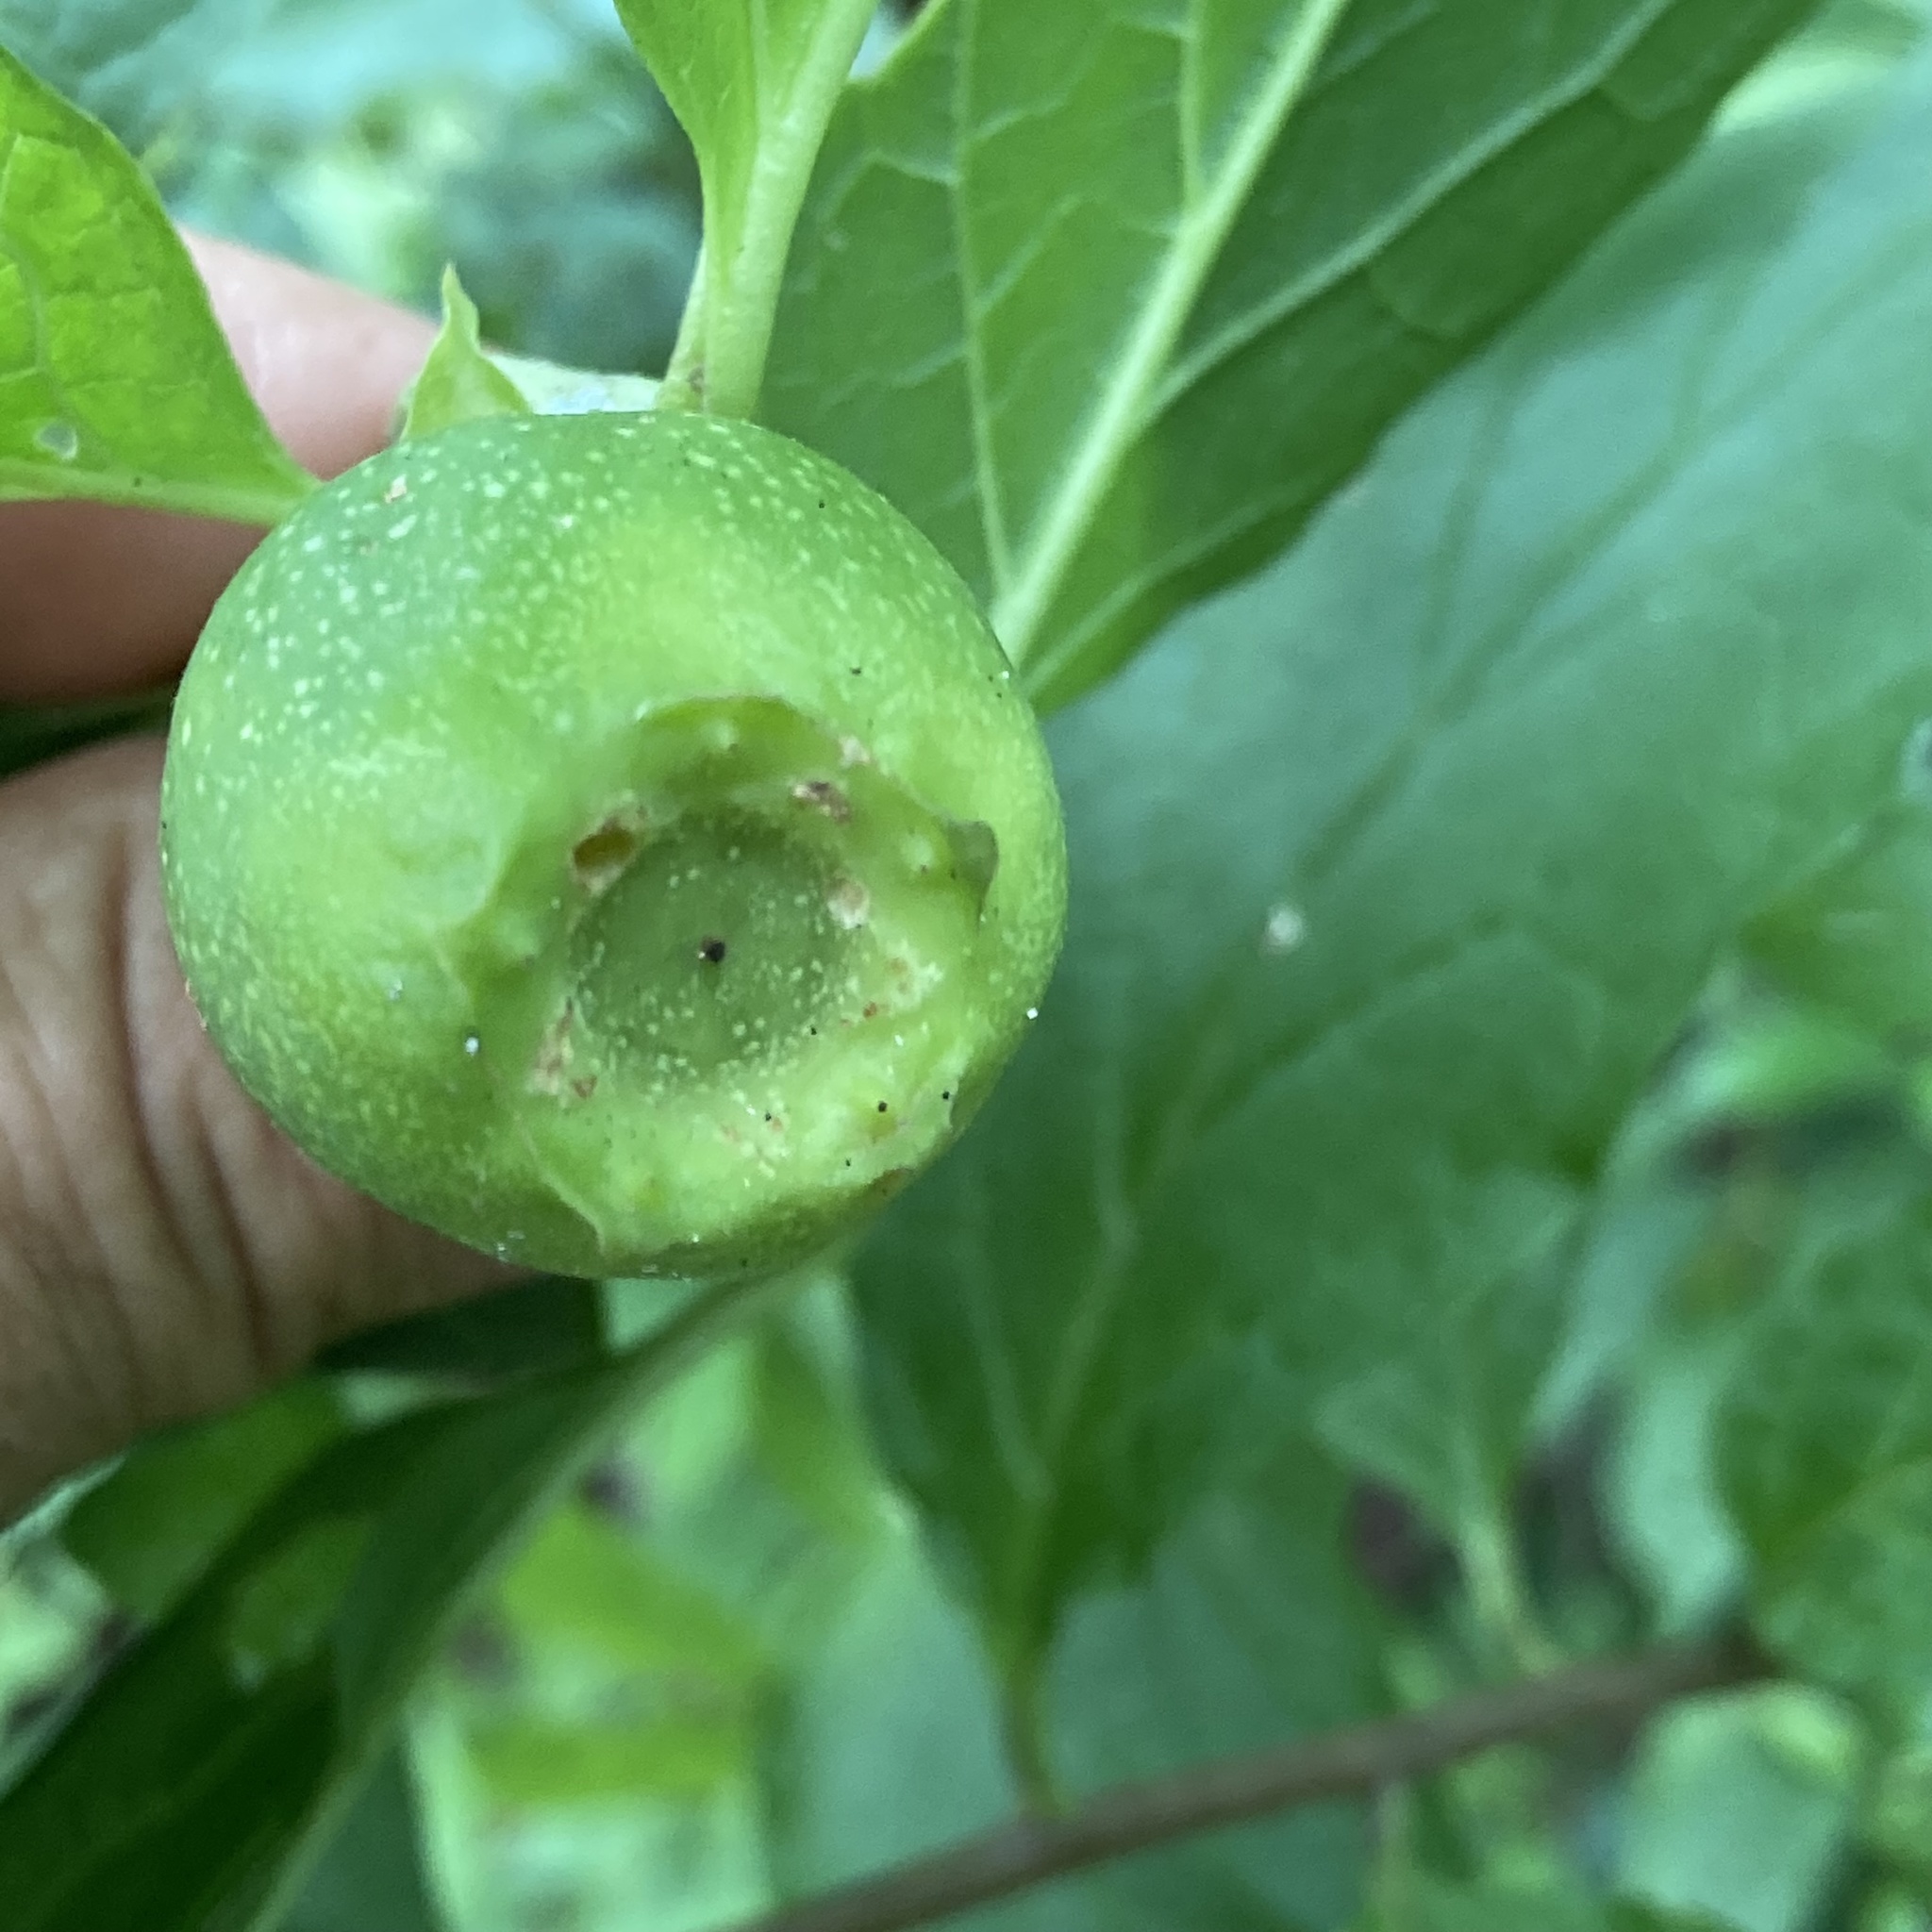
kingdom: Plantae
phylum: Tracheophyta
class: Magnoliopsida
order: Santalales
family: Cervantesiaceae
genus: Pyrularia
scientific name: Pyrularia pubera
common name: Oilnut
